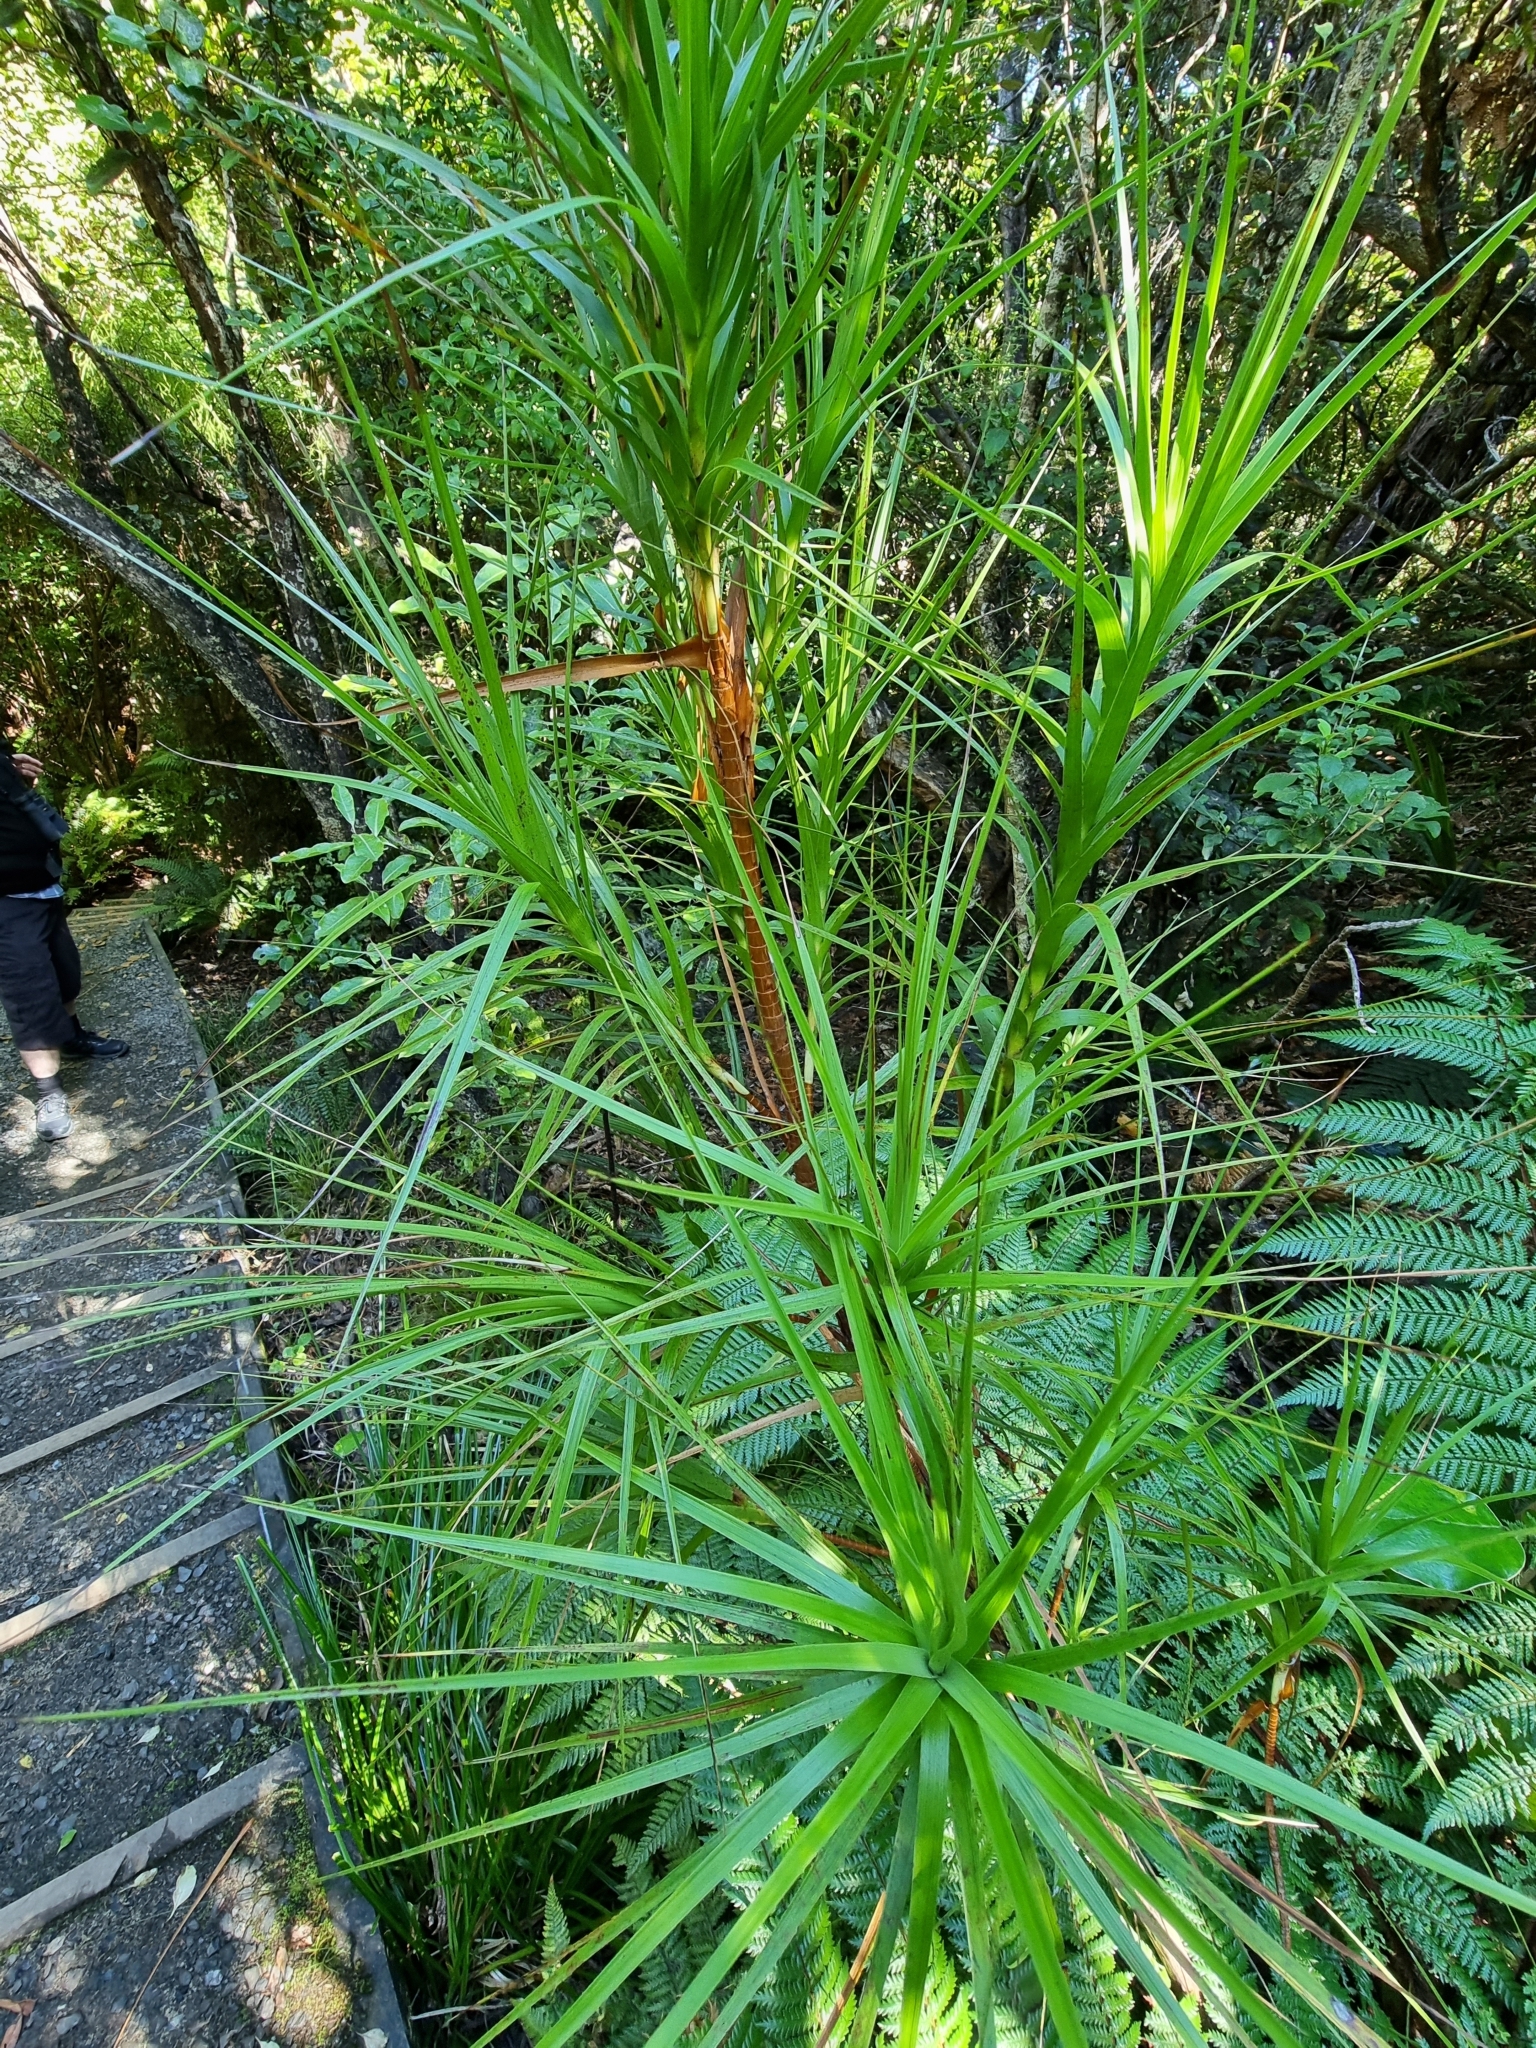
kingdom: Plantae
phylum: Tracheophyta
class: Magnoliopsida
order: Ericales
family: Ericaceae
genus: Dracophyllum
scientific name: Dracophyllum longifolium
